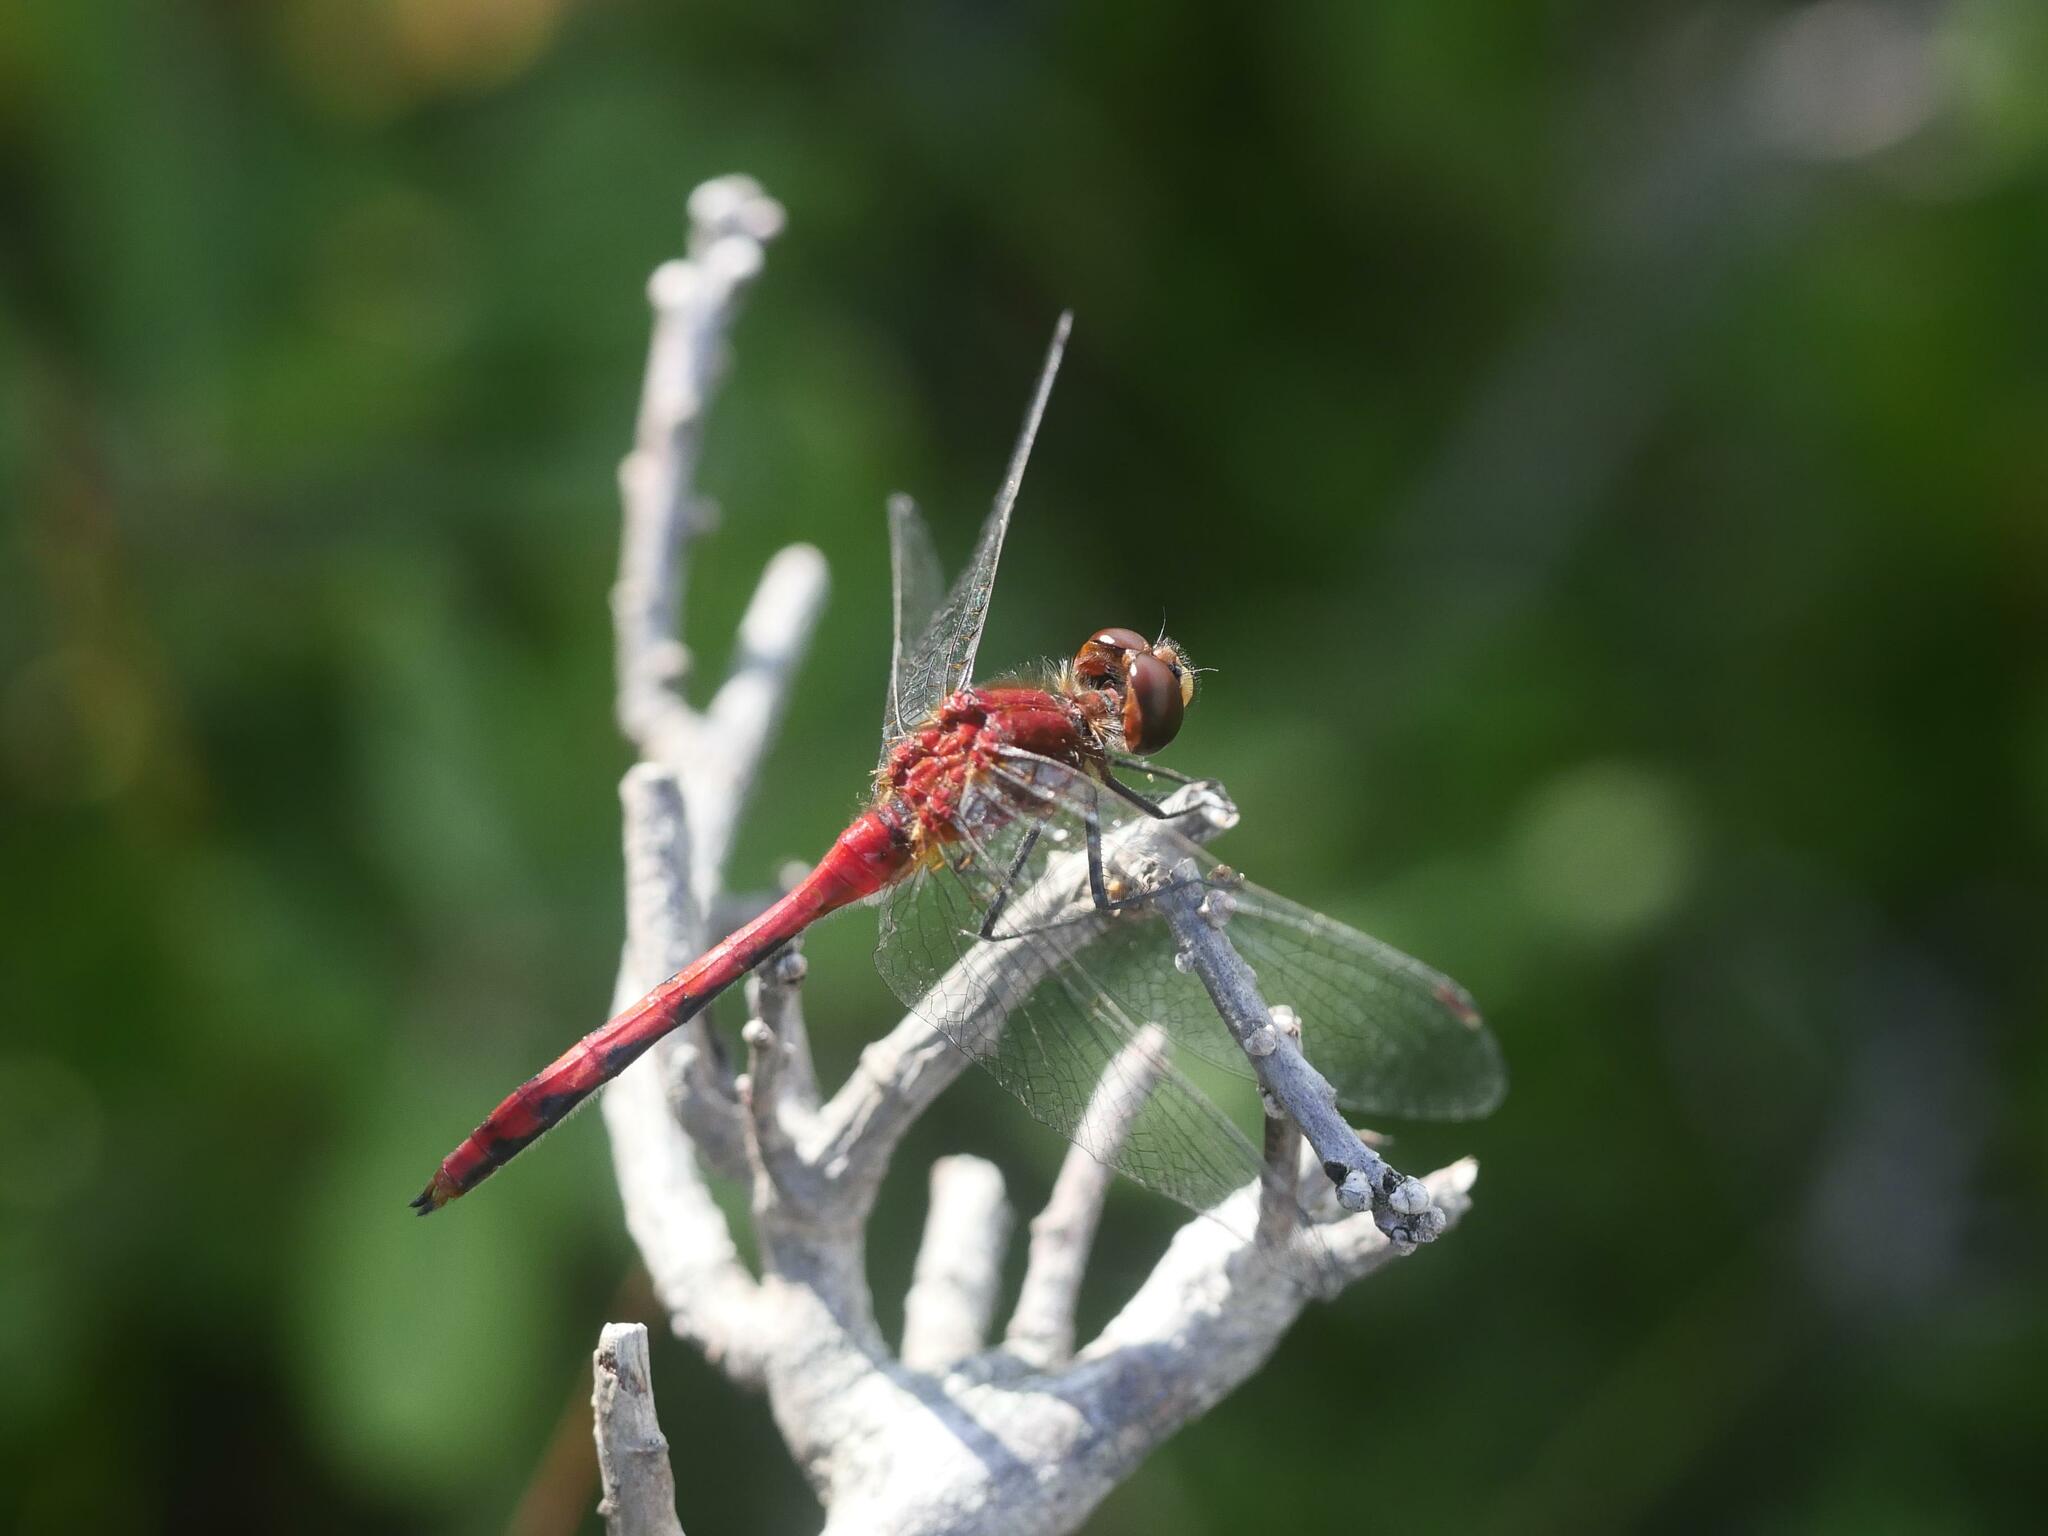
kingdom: Animalia
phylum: Arthropoda
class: Insecta
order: Odonata
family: Libellulidae
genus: Sympetrum
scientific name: Sympetrum internum
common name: Cherry-faced meadowhawk
